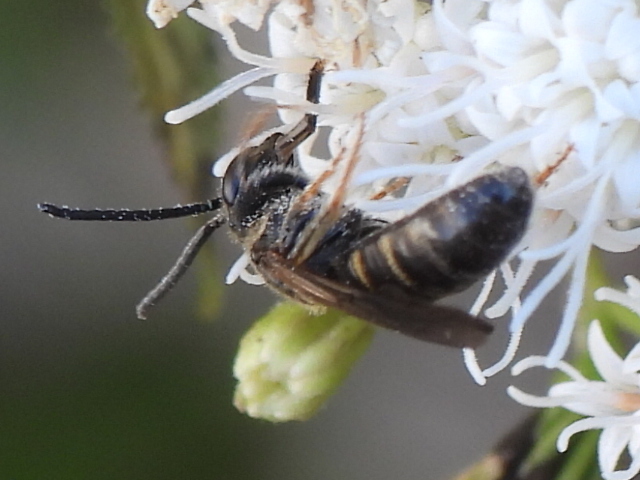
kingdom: Animalia
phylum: Arthropoda
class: Insecta
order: Hymenoptera
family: Halictidae
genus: Lasioglossum
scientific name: Lasioglossum fuscipenne
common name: Brown-winged sweat bee
